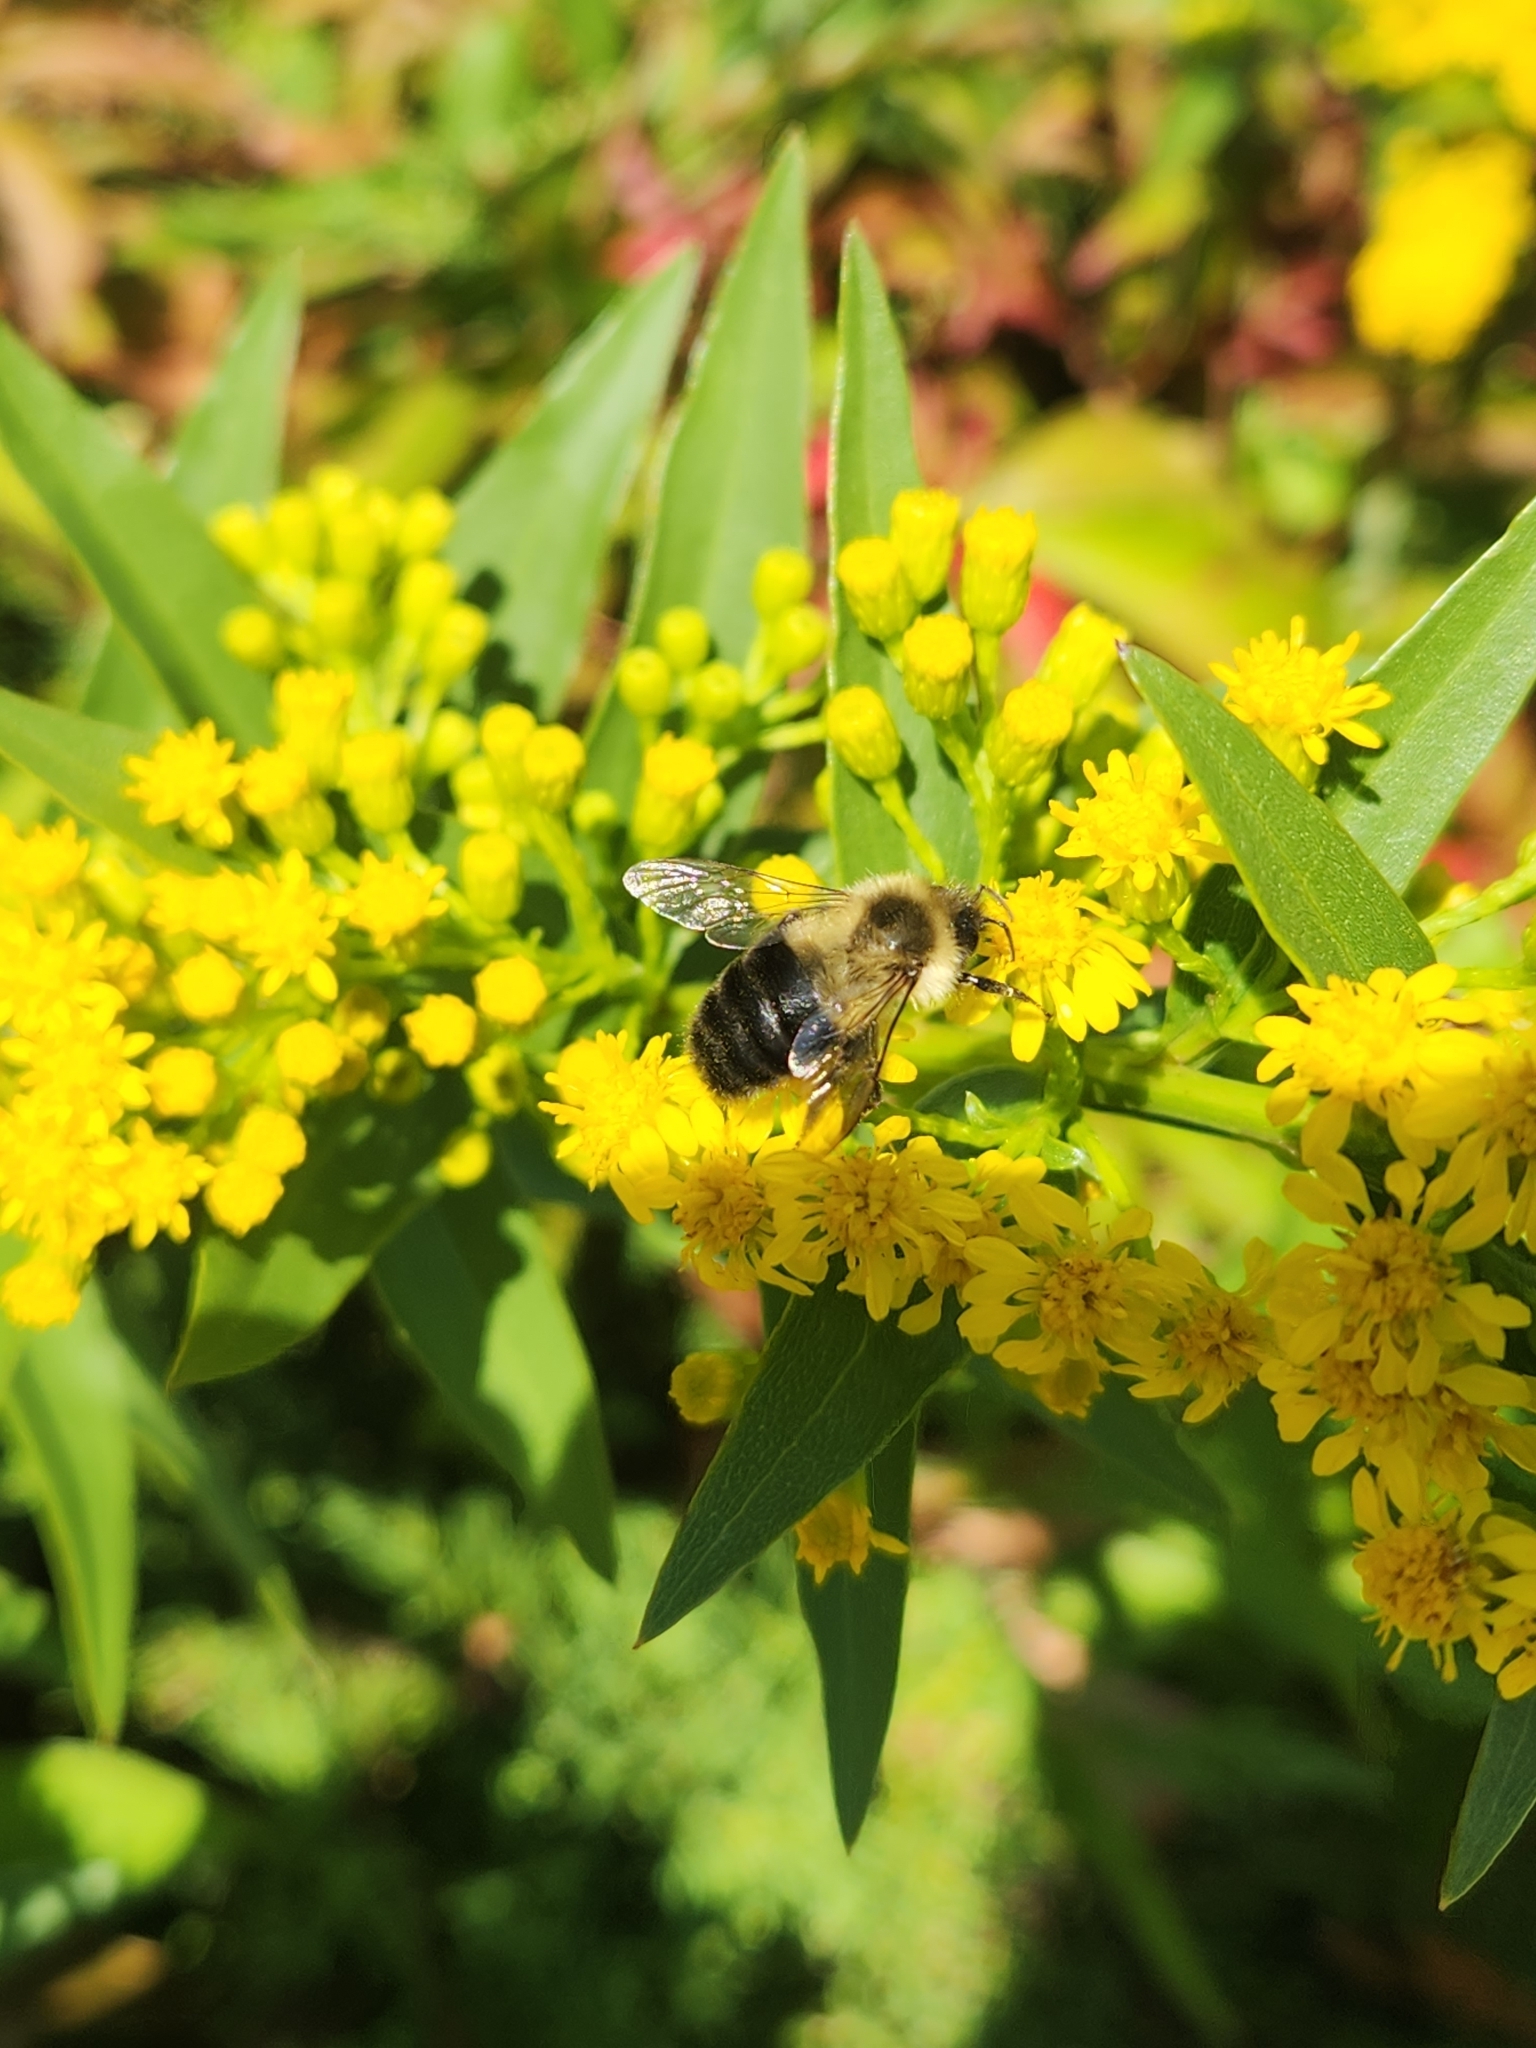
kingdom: Animalia
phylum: Arthropoda
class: Insecta
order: Hymenoptera
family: Apidae
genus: Bombus
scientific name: Bombus impatiens
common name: Common eastern bumble bee
